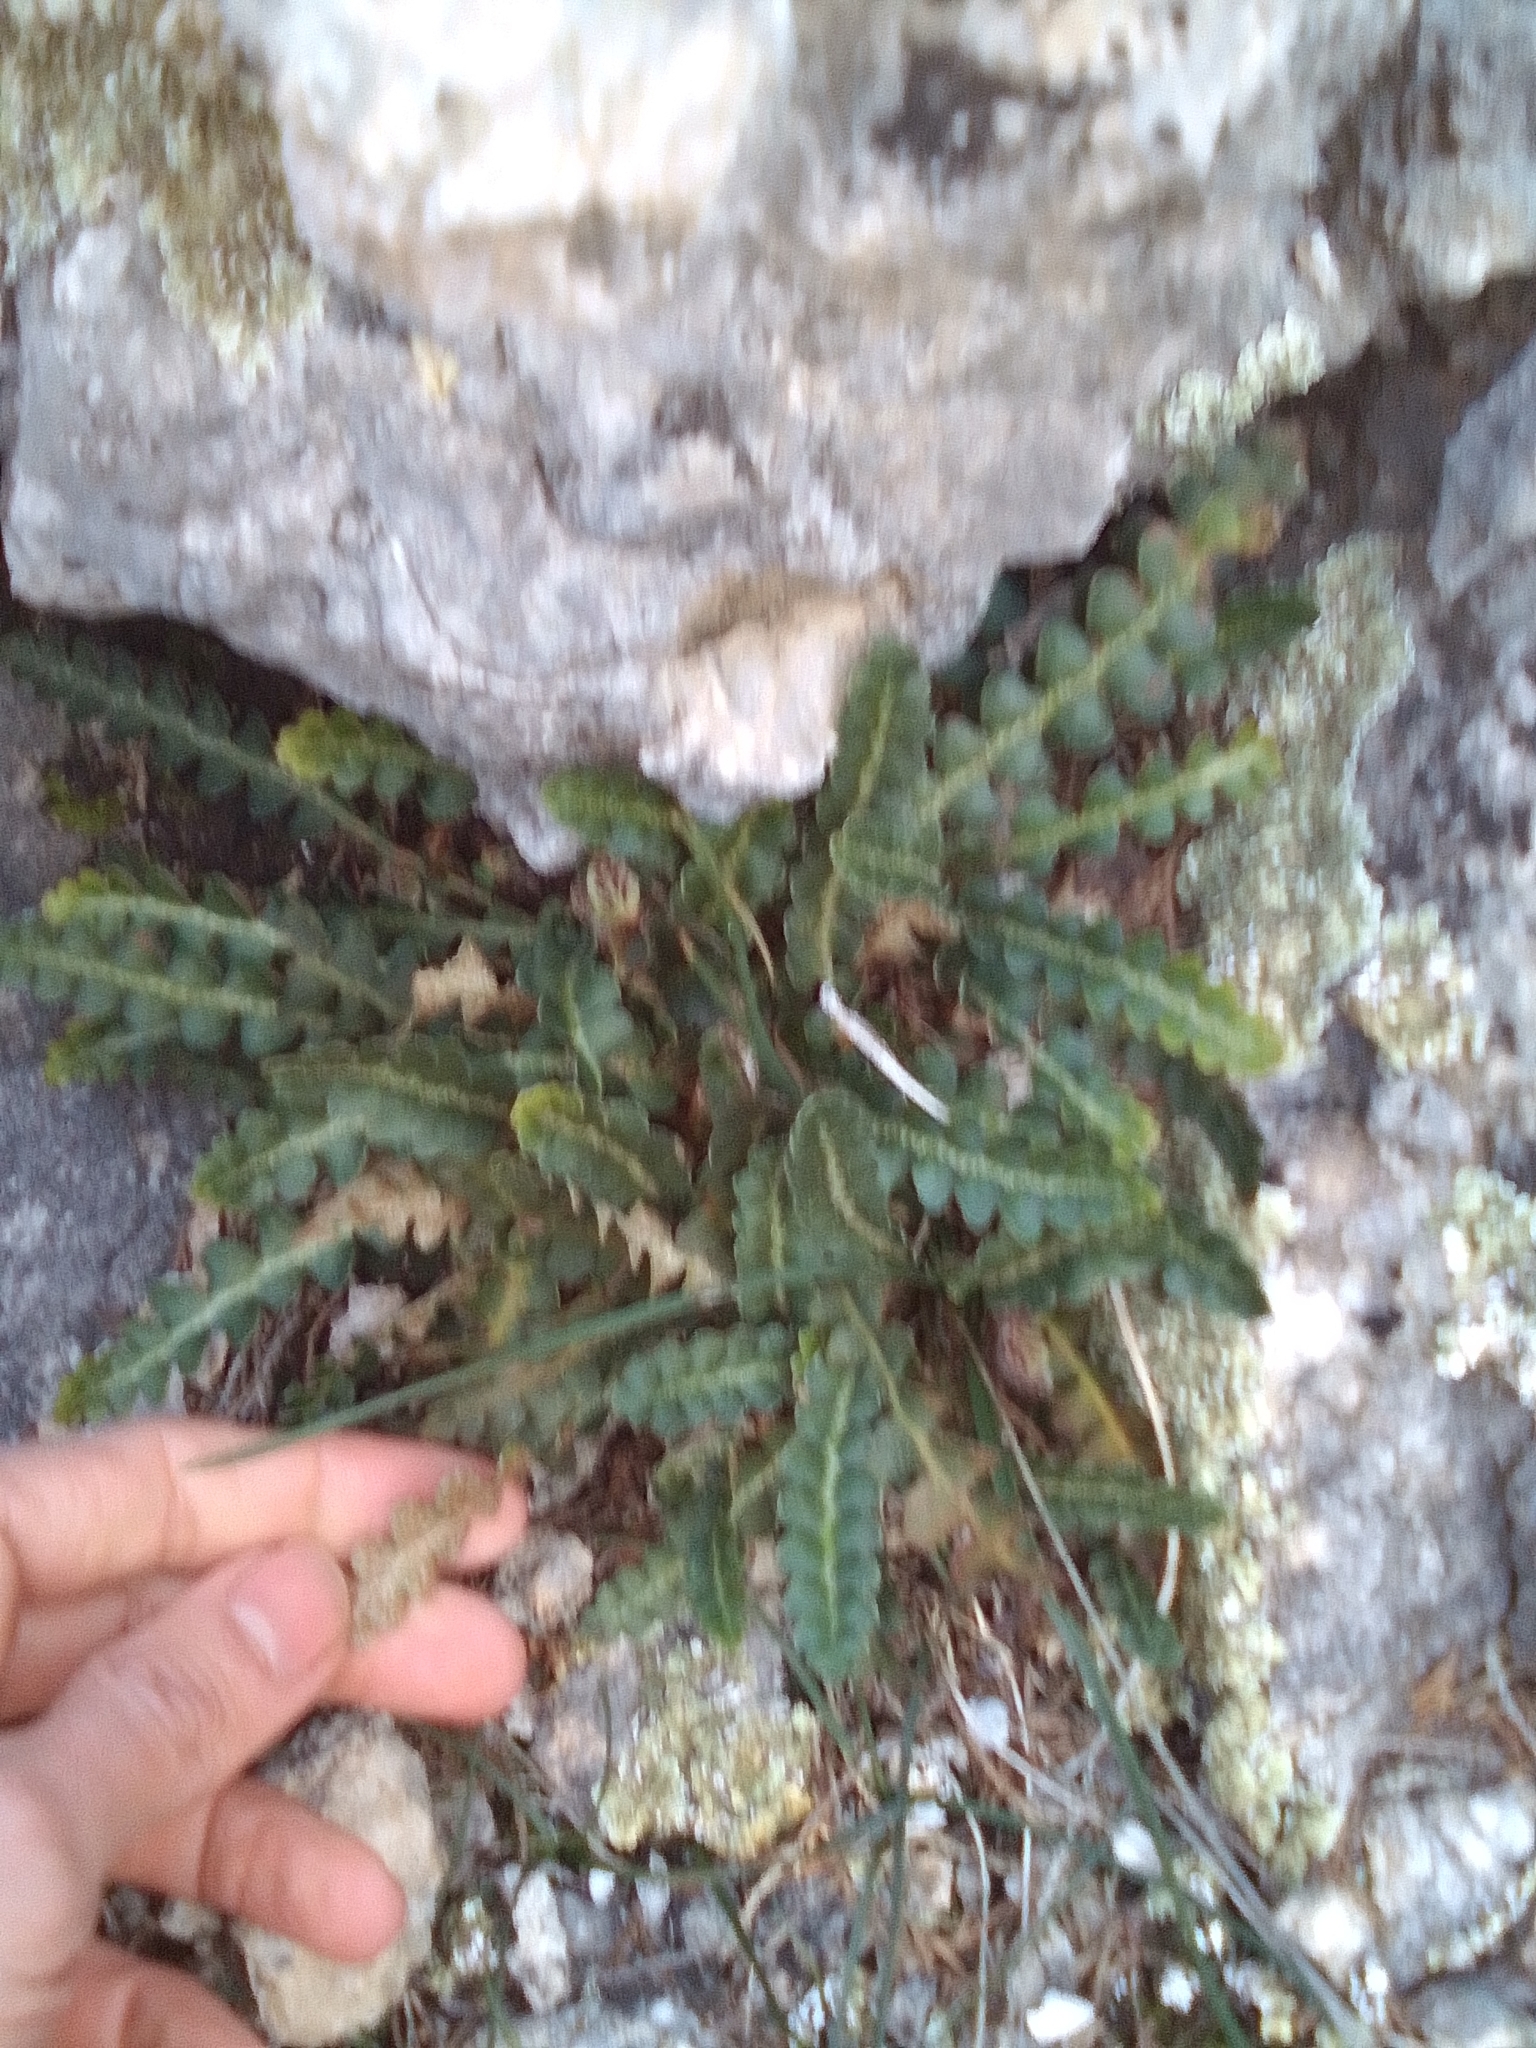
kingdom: Plantae
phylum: Tracheophyta
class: Polypodiopsida
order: Polypodiales
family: Aspleniaceae
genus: Asplenium
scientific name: Asplenium ceterach
